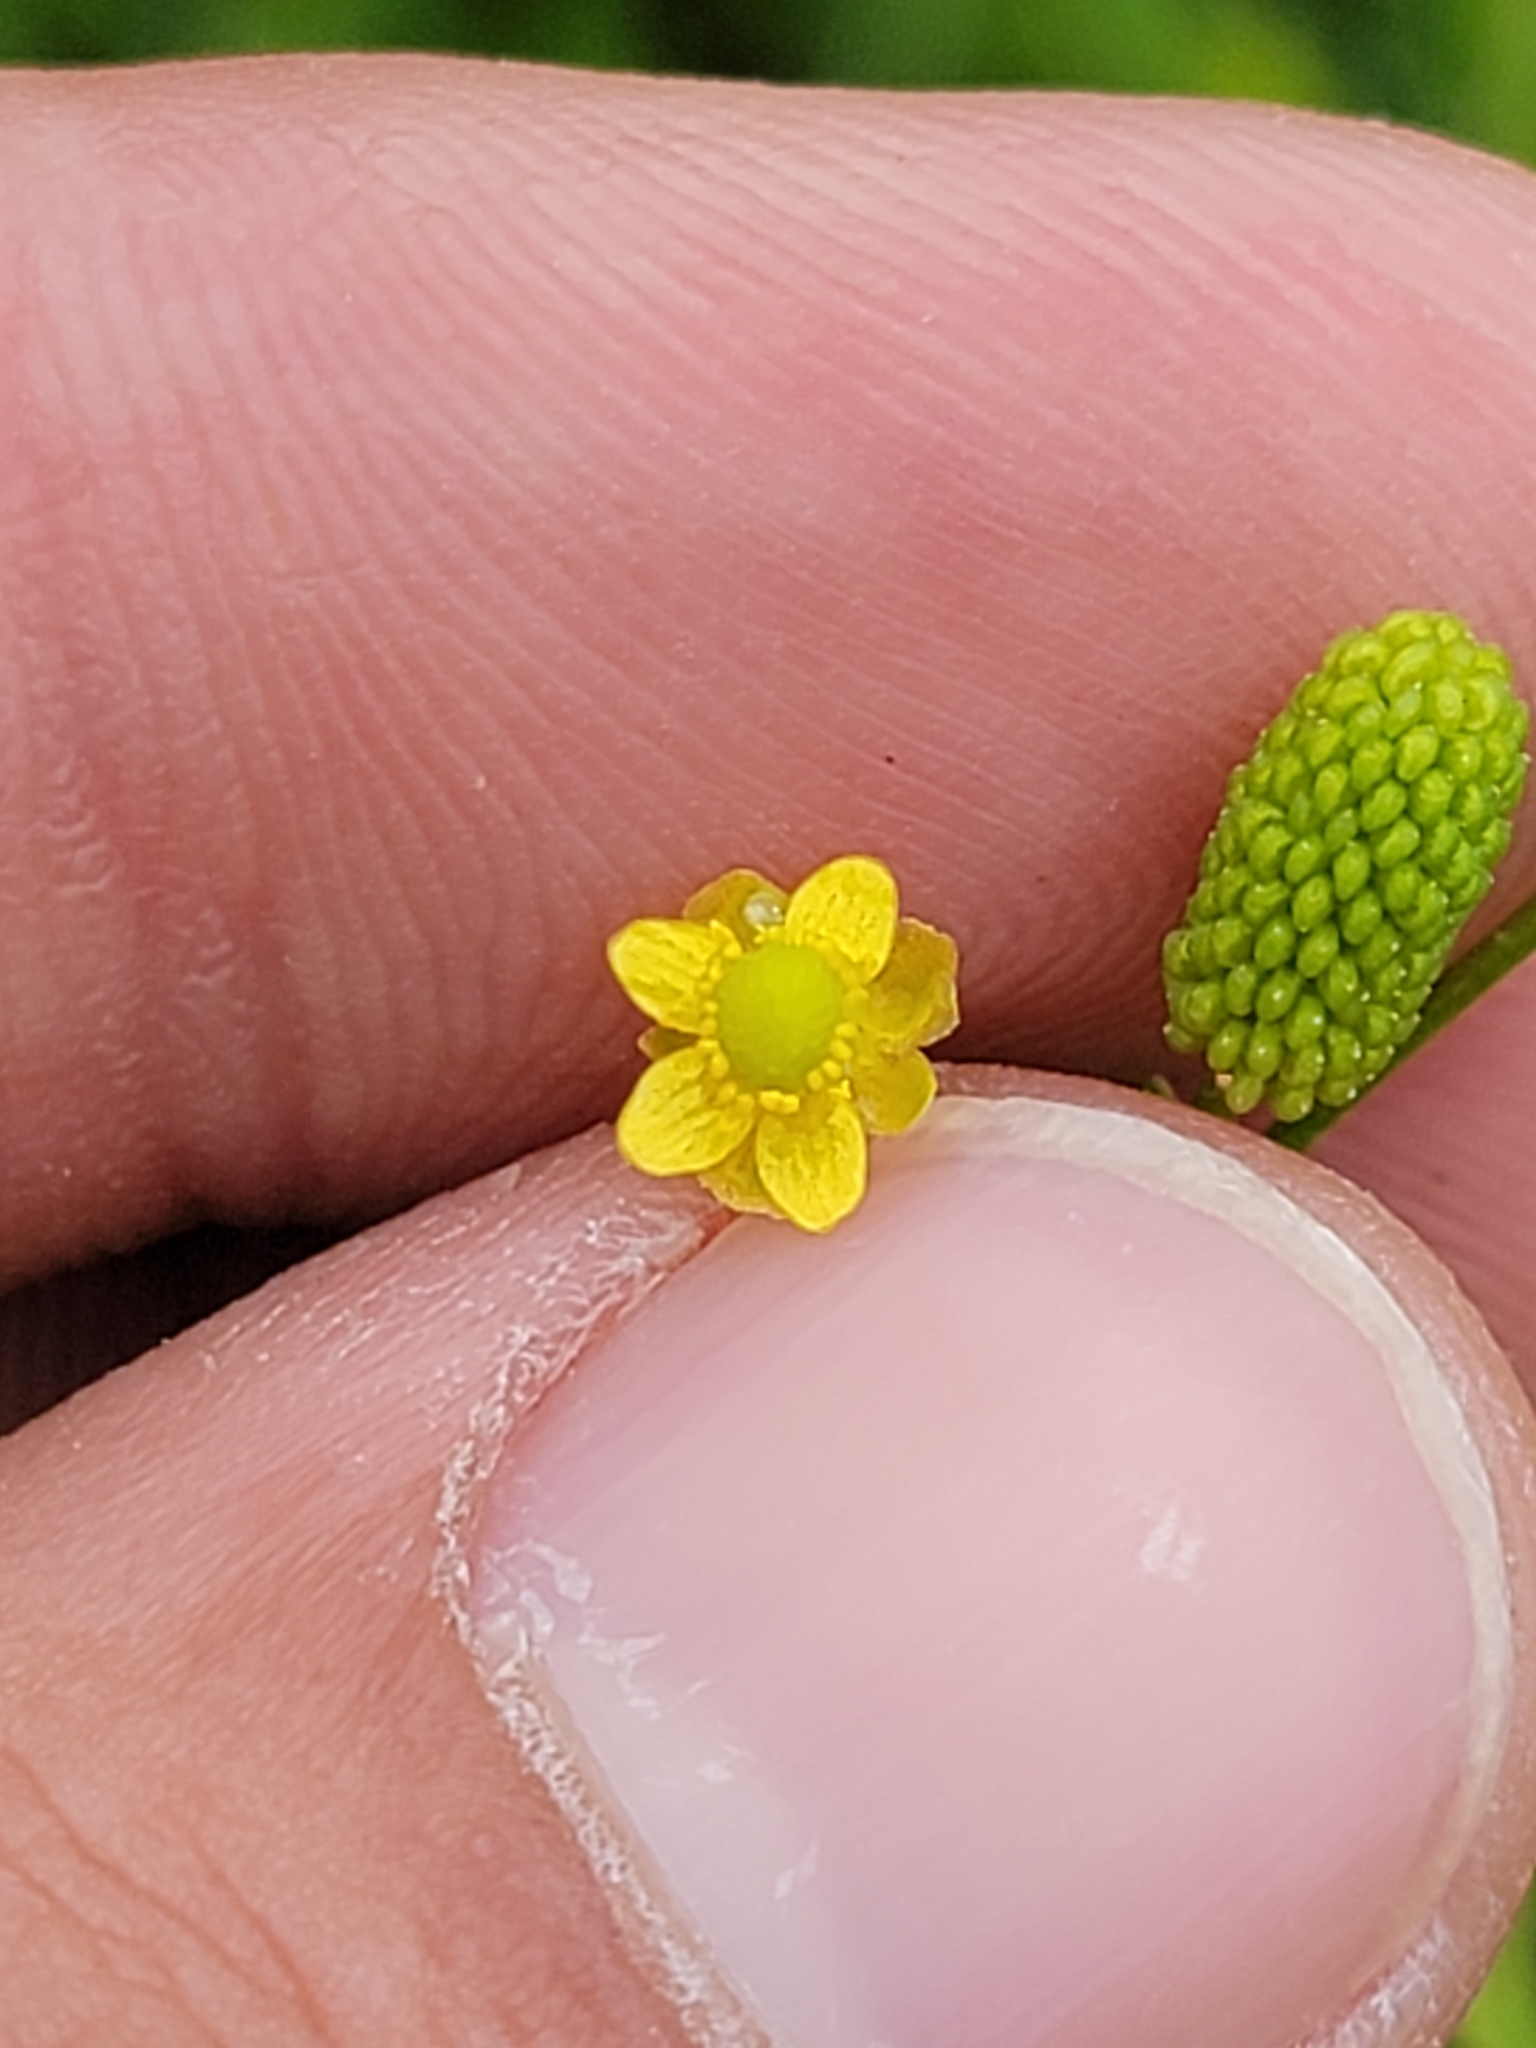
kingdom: Plantae
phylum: Tracheophyta
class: Magnoliopsida
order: Ranunculales
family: Ranunculaceae
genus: Ranunculus
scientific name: Ranunculus sceleratus
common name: Celery-leaved buttercup
